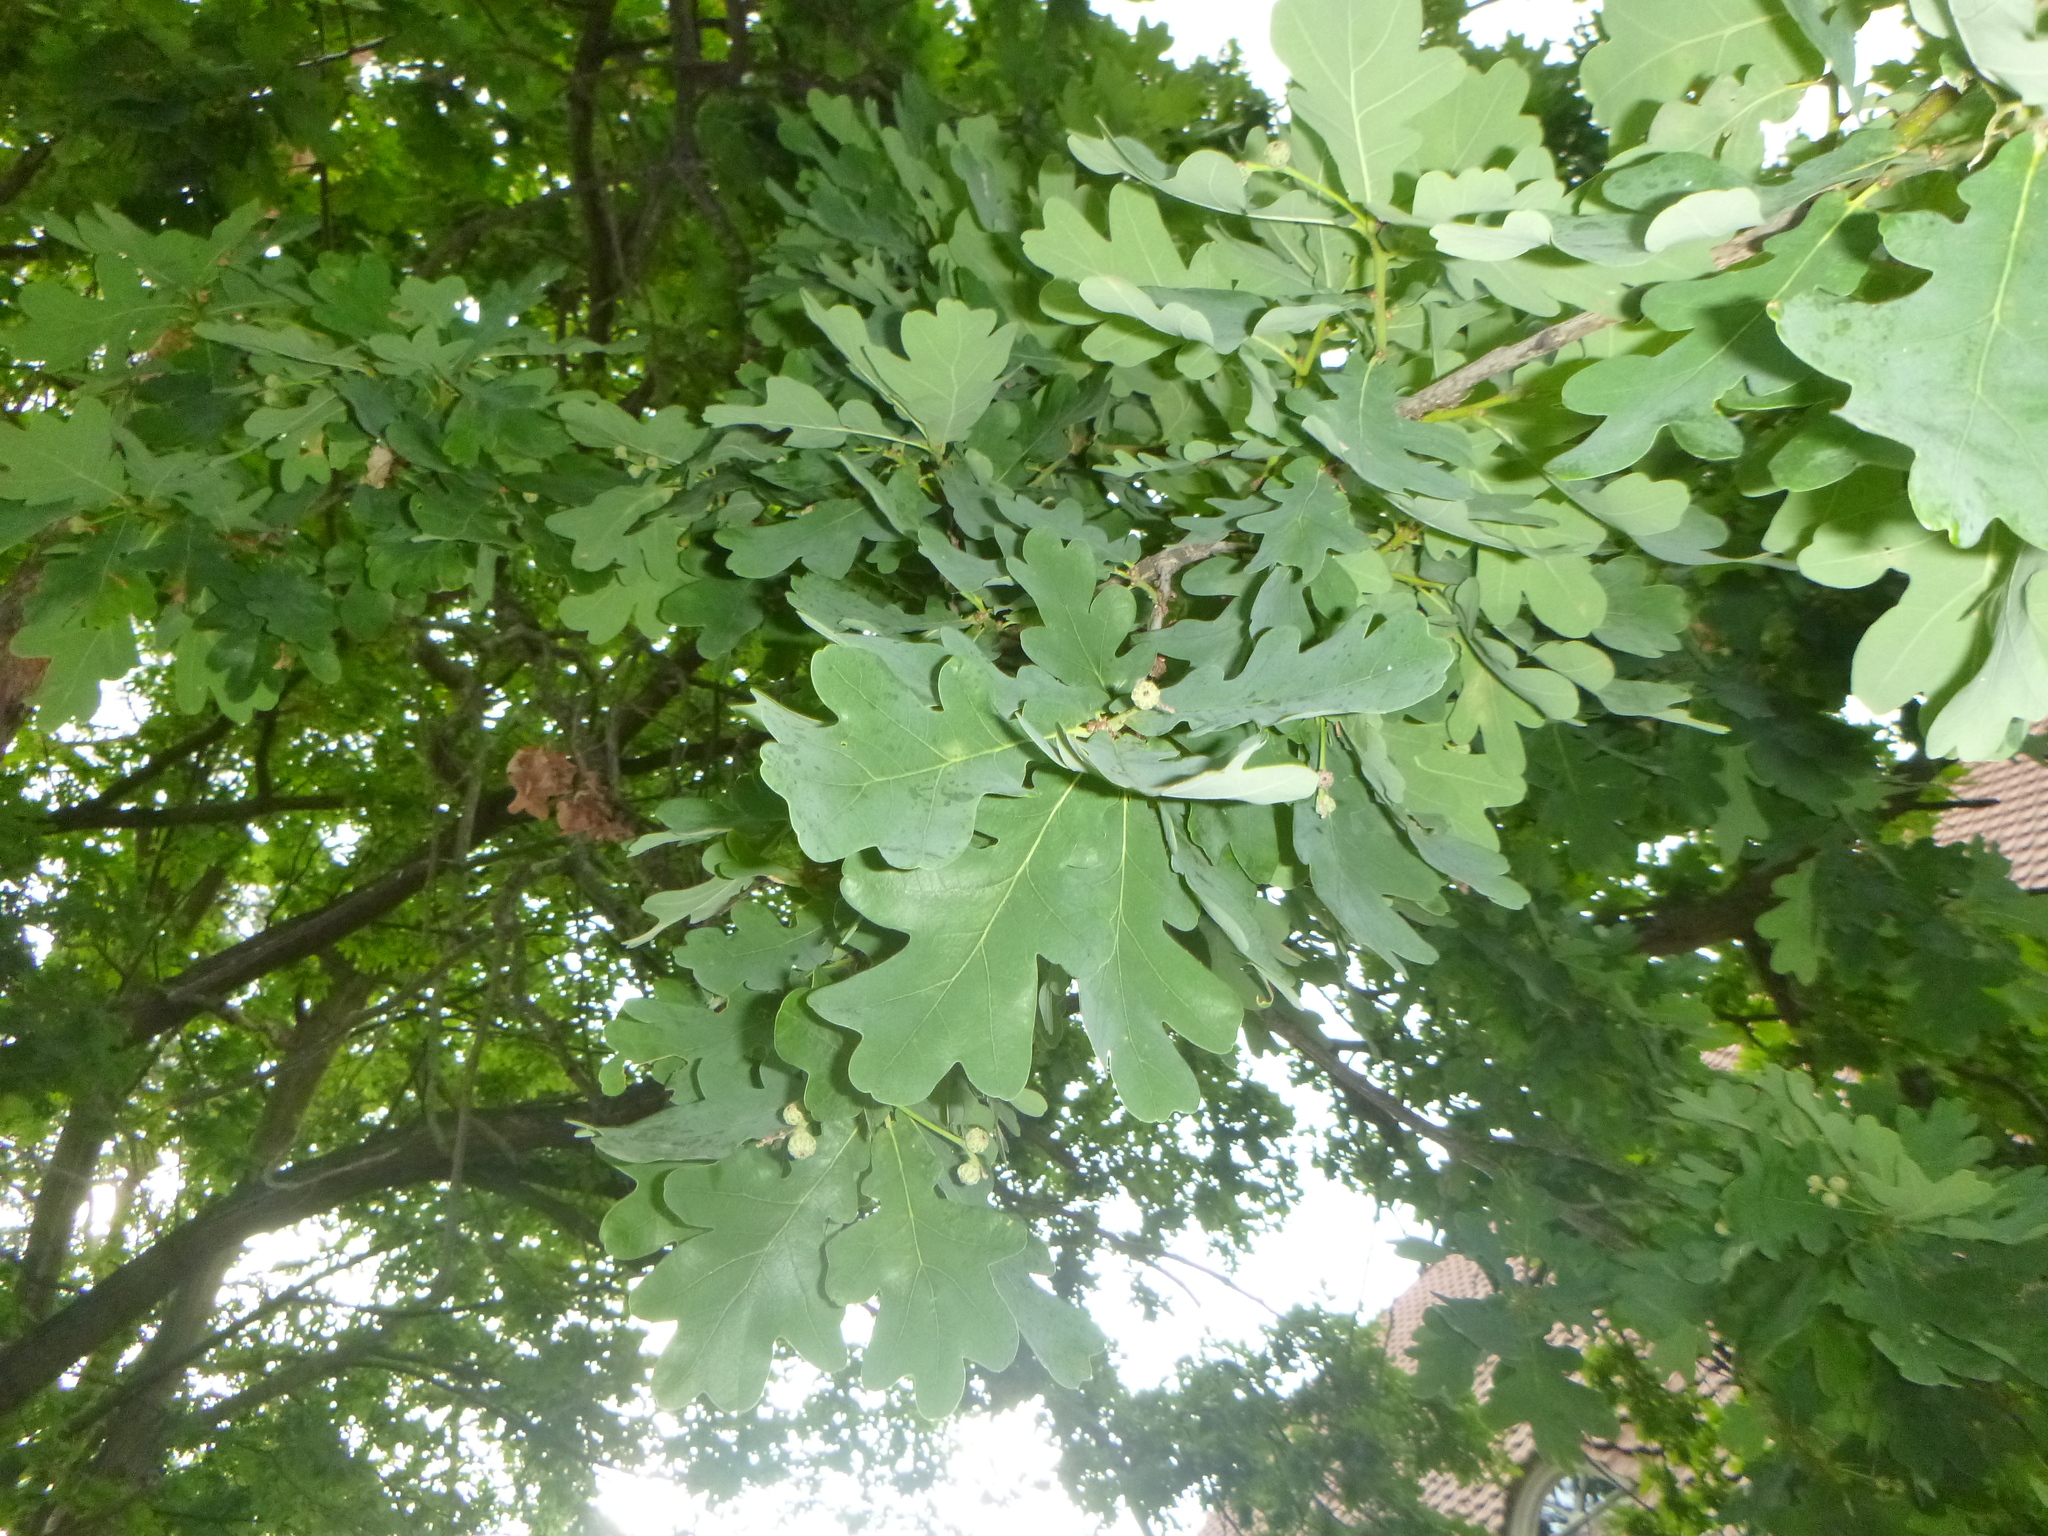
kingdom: Plantae
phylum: Tracheophyta
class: Magnoliopsida
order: Fagales
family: Fagaceae
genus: Quercus
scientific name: Quercus robur
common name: Pedunculate oak
